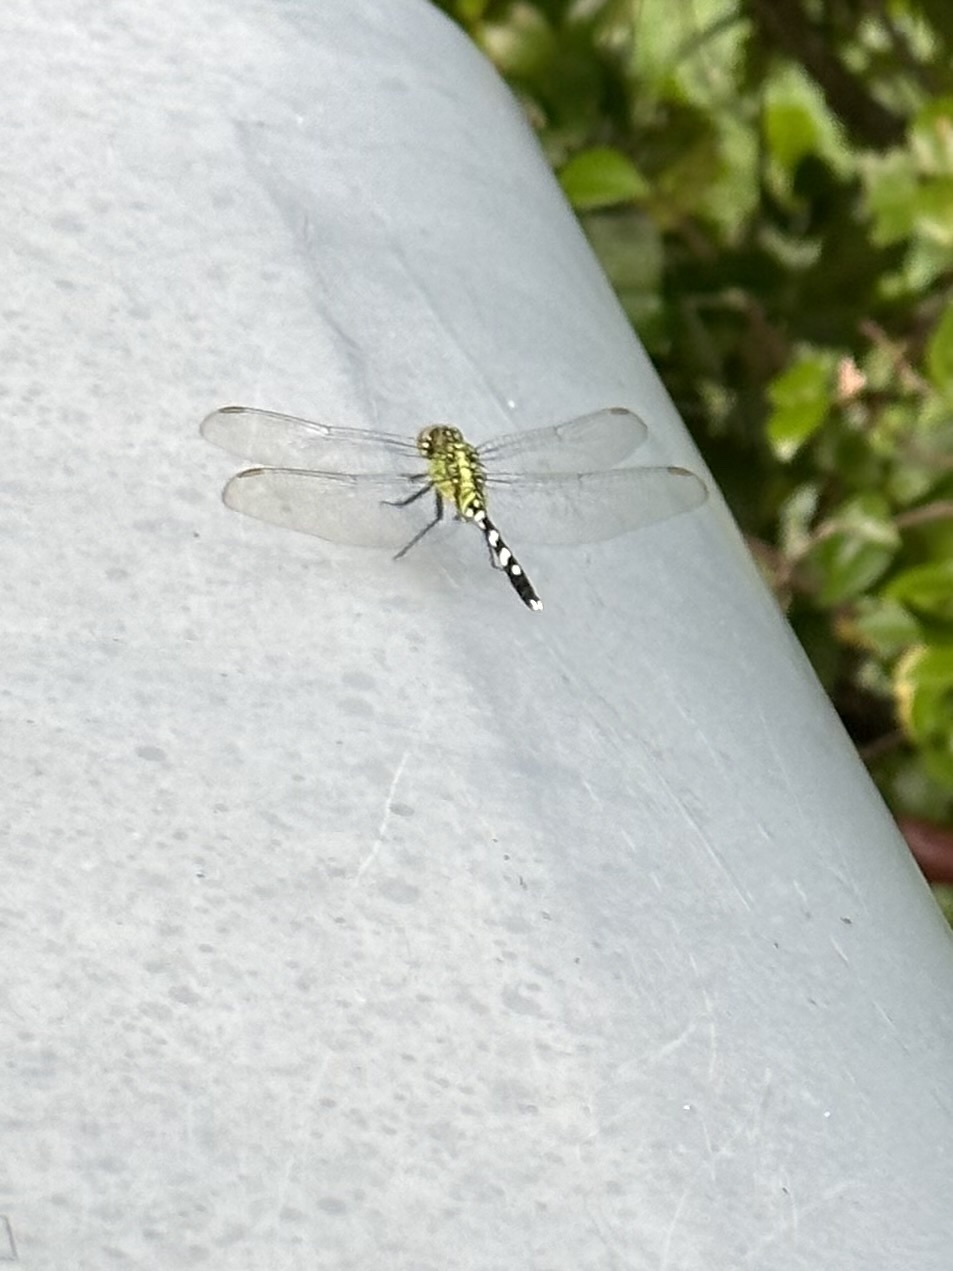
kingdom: Animalia
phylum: Arthropoda
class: Insecta
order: Odonata
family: Libellulidae
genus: Erythemis
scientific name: Erythemis simplicicollis
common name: Eastern pondhawk
